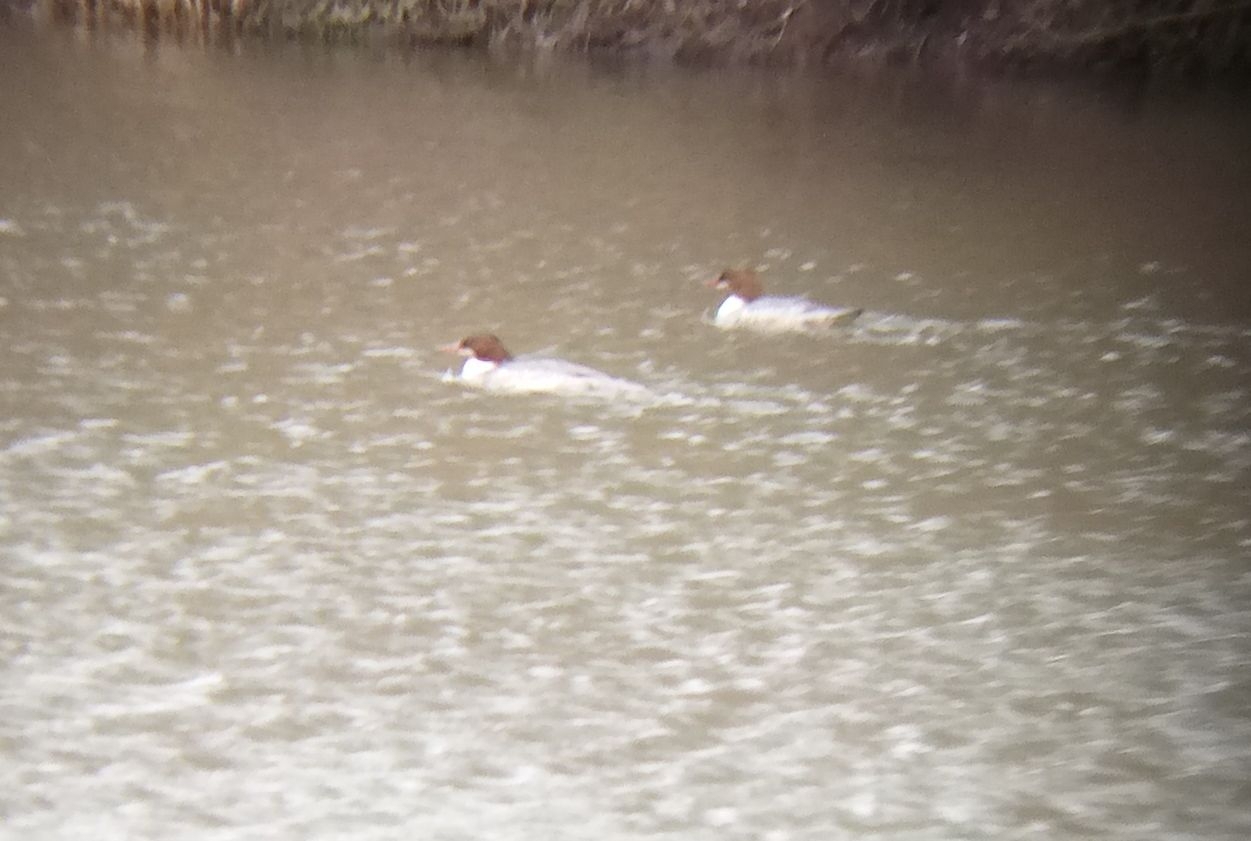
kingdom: Animalia
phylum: Chordata
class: Aves
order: Anseriformes
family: Anatidae
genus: Mergus
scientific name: Mergus merganser
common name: Common merganser
